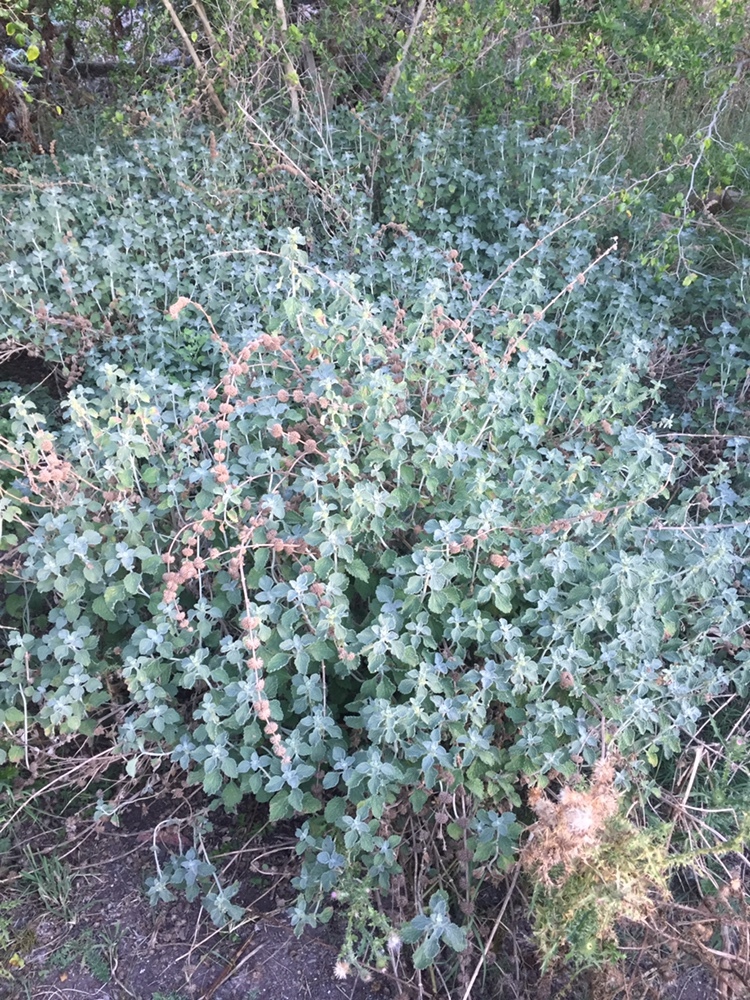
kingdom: Plantae
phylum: Tracheophyta
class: Magnoliopsida
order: Lamiales
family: Lamiaceae
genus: Marrubium
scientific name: Marrubium vulgare
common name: Horehound
